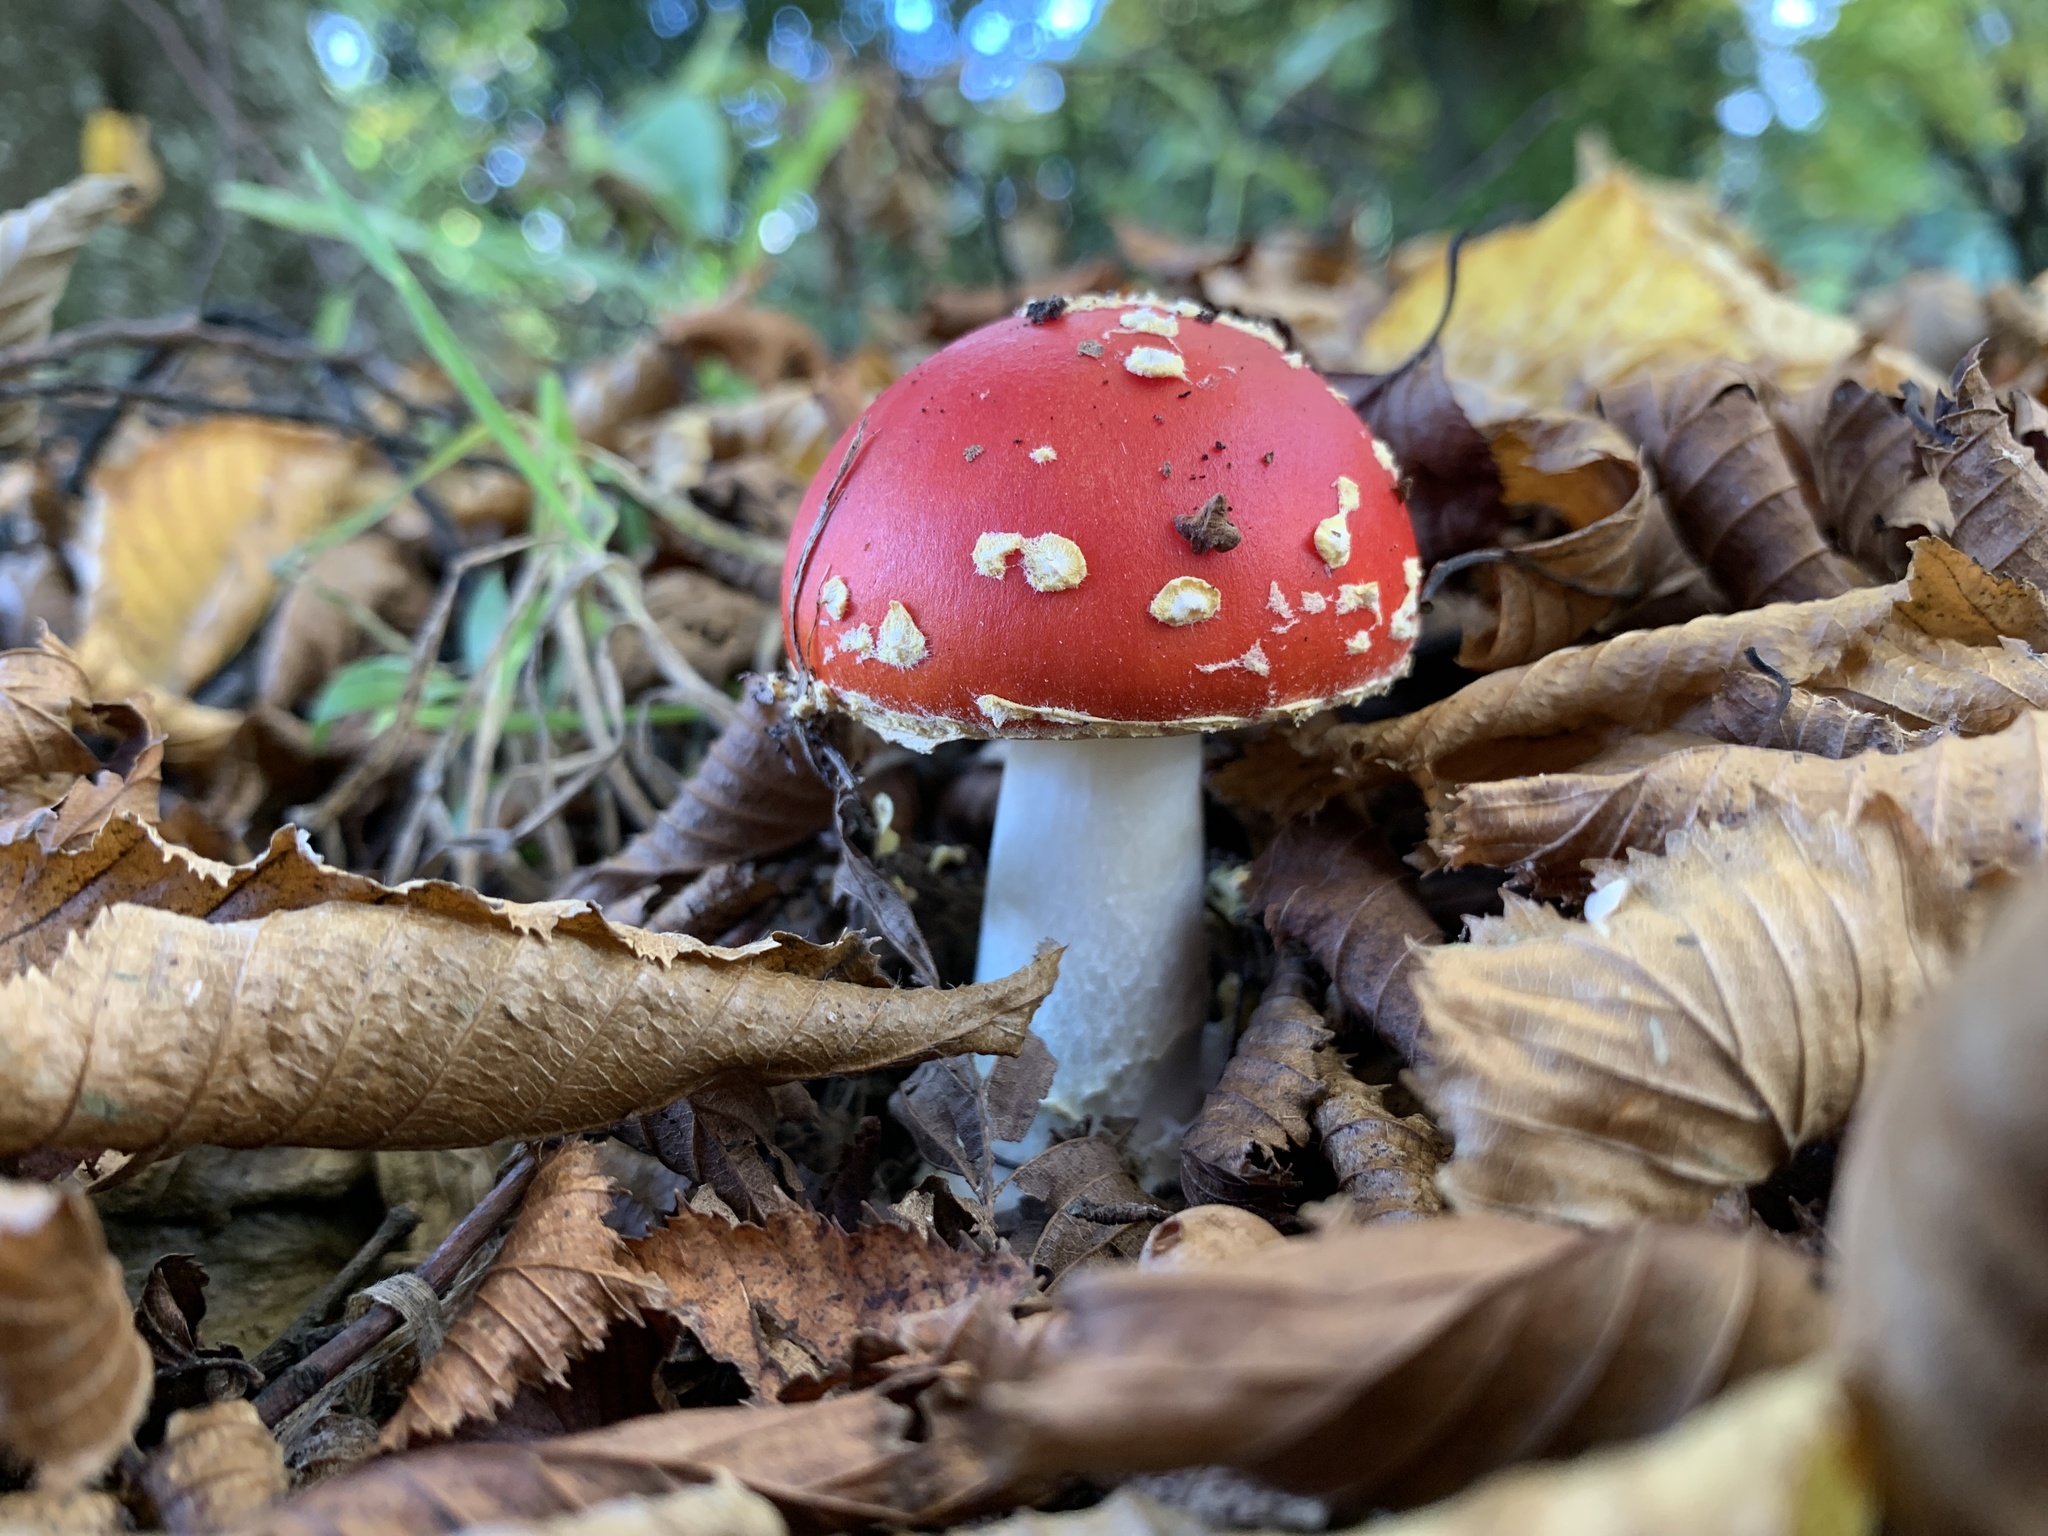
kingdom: Fungi
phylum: Basidiomycota
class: Agaricomycetes
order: Agaricales
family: Amanitaceae
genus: Amanita
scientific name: Amanita muscaria
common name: Fly agaric
